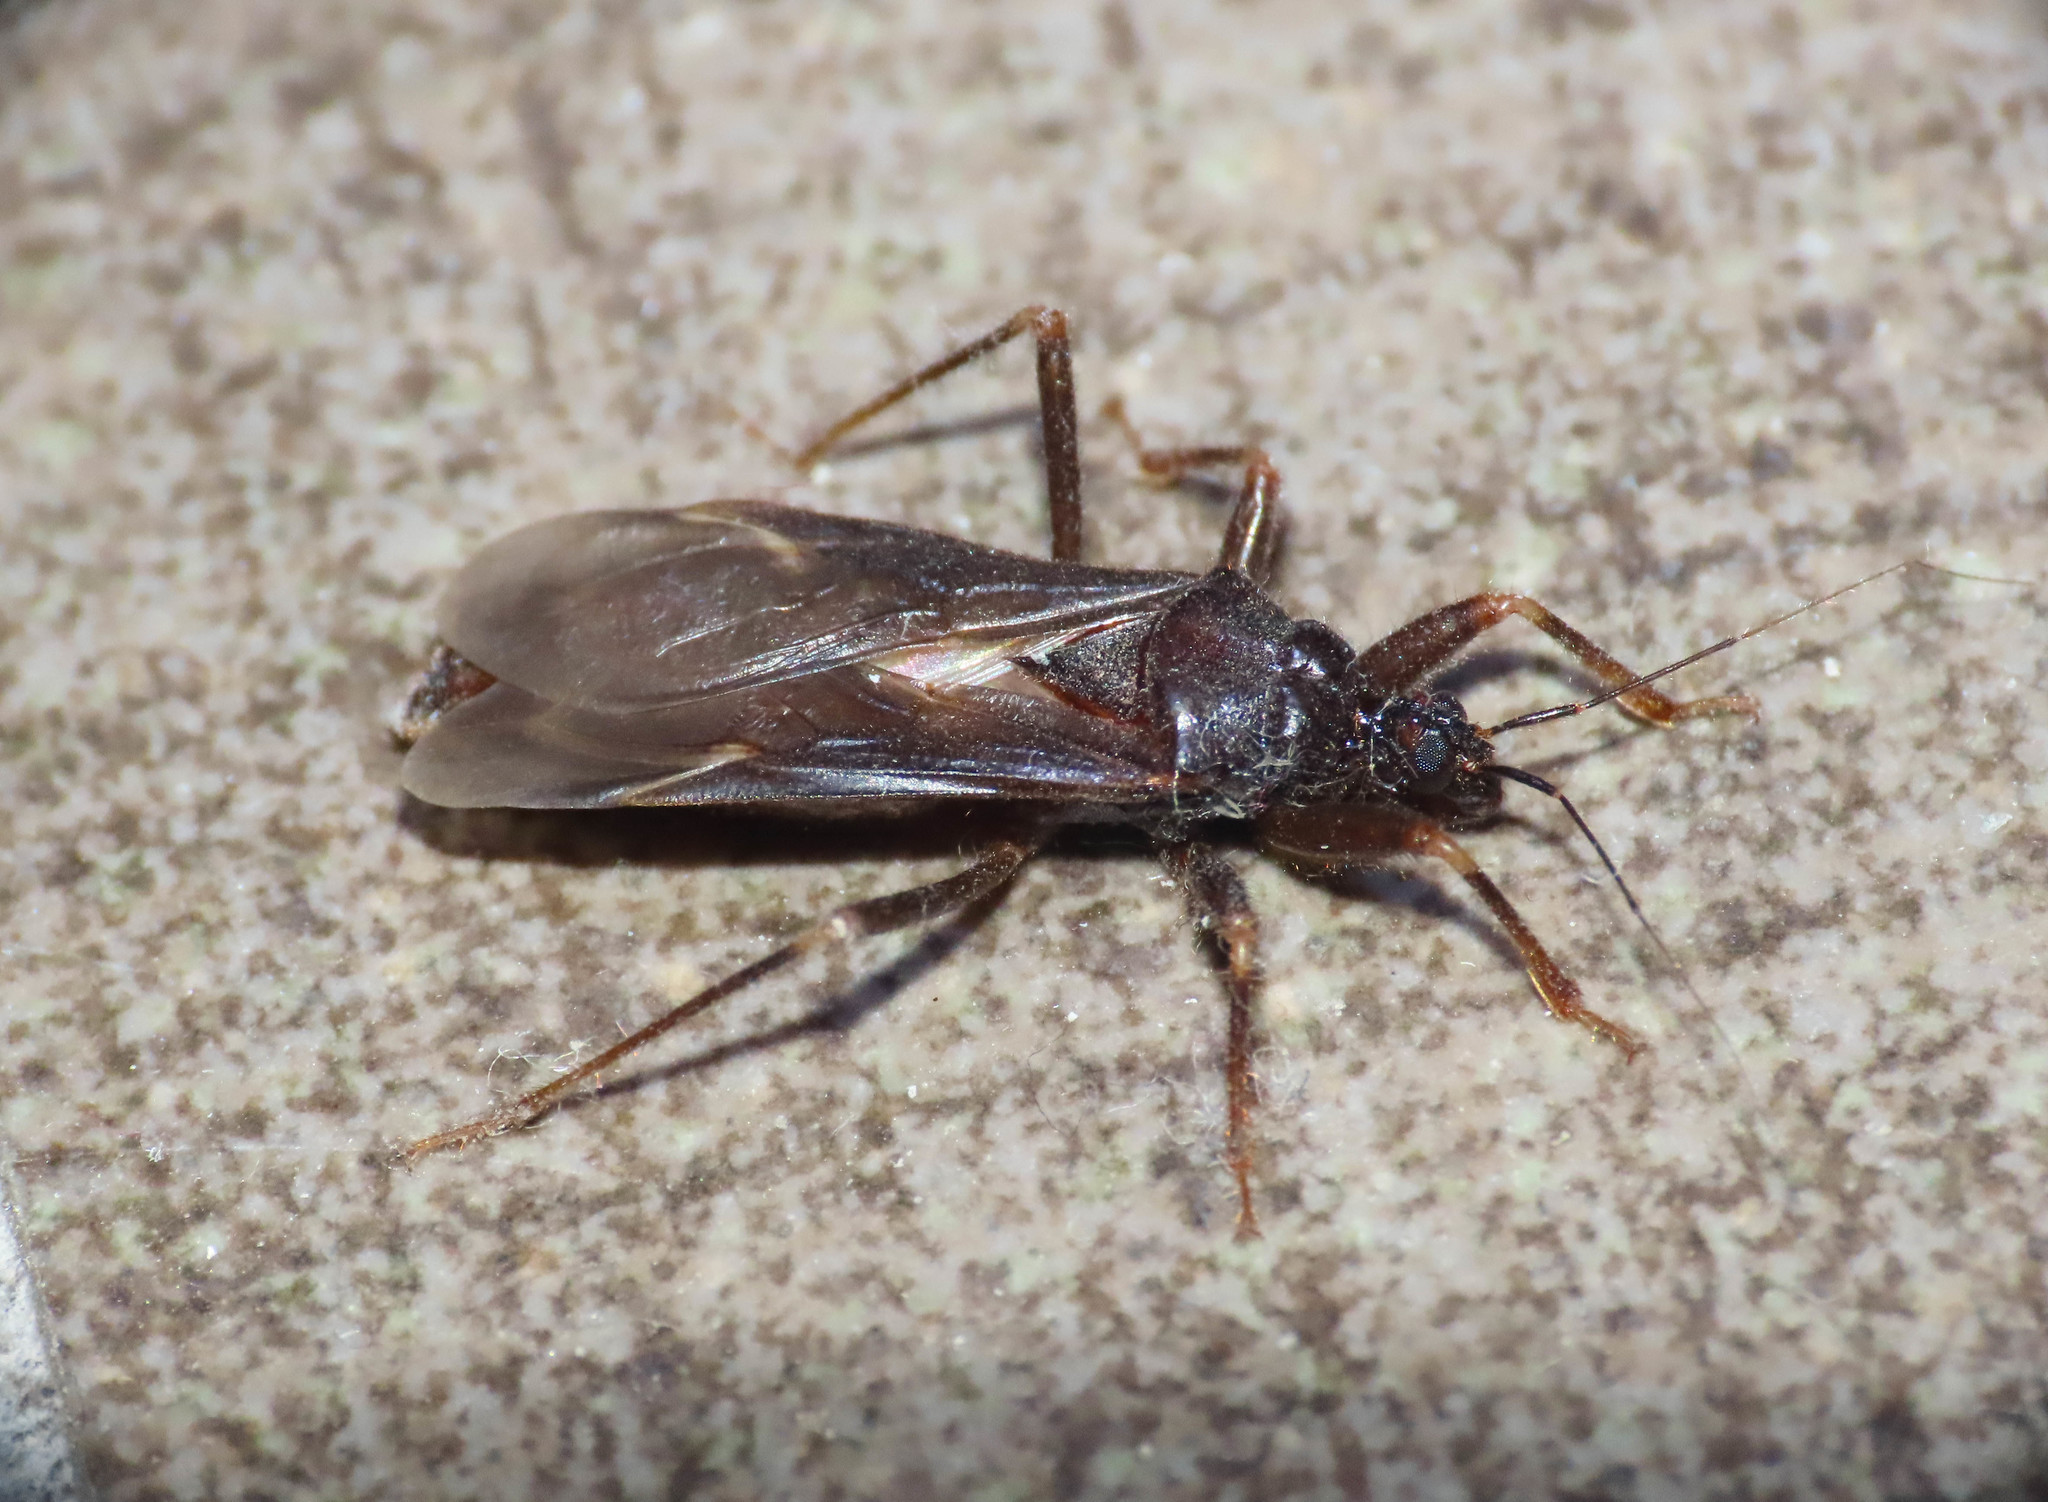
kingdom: Animalia
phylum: Arthropoda
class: Insecta
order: Hemiptera
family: Reduviidae
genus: Reduvius
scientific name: Reduvius personatus
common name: Masked hunter
